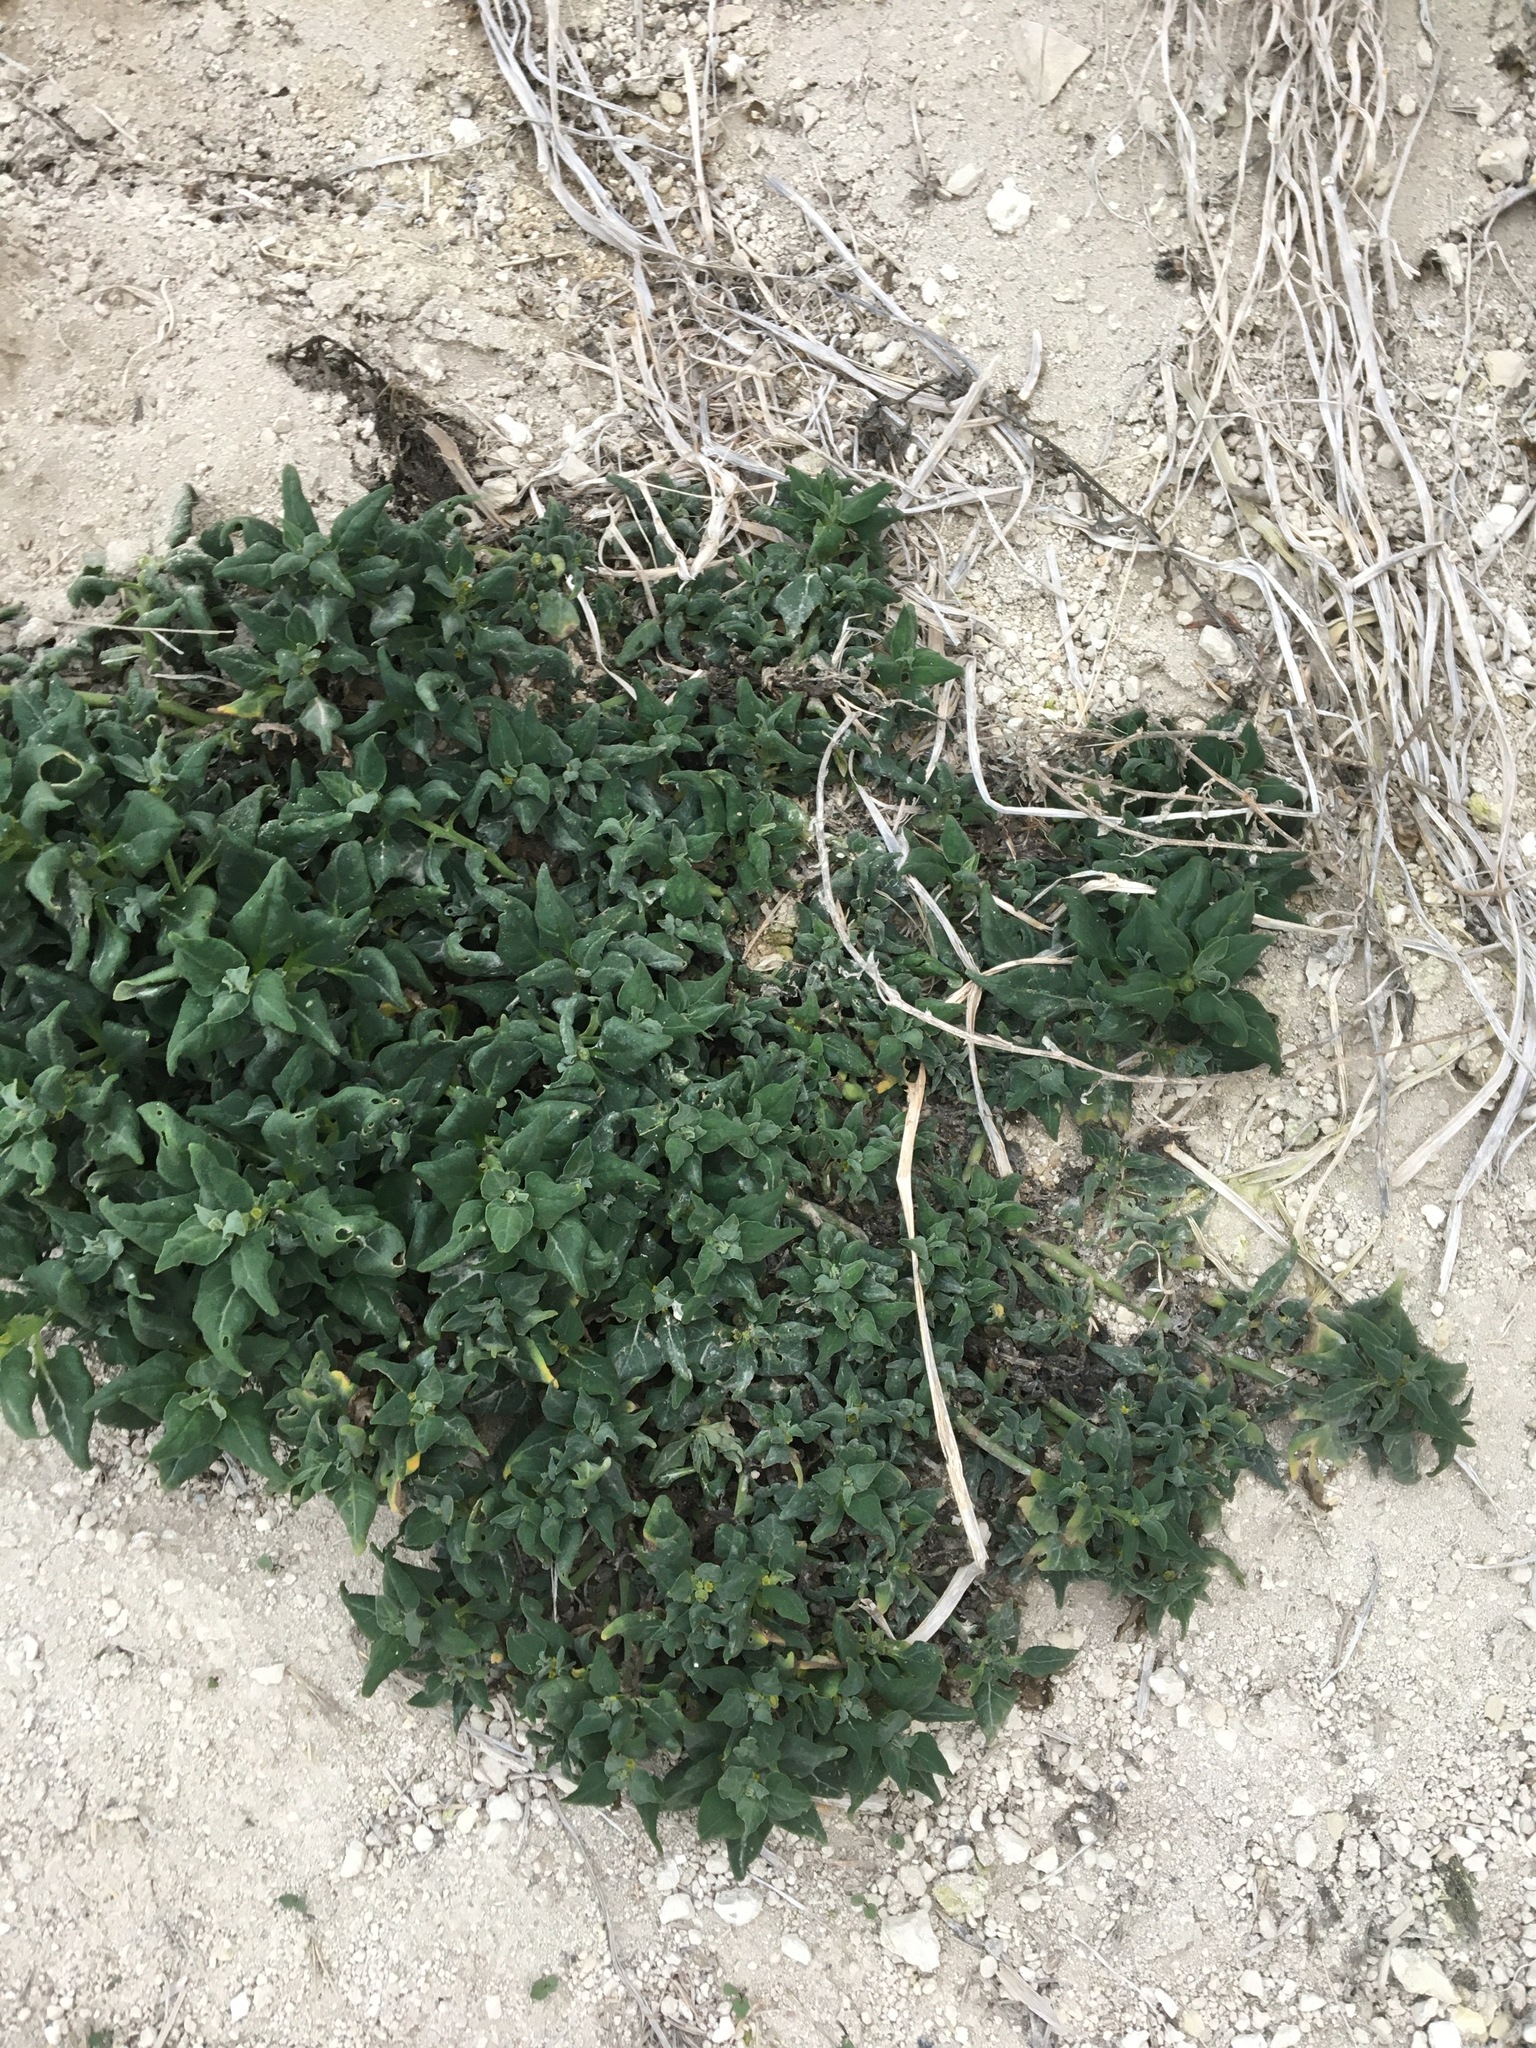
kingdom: Plantae
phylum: Tracheophyta
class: Magnoliopsida
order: Caryophyllales
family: Aizoaceae
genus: Tetragonia
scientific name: Tetragonia tetragonoides
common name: New zealand-spinach
